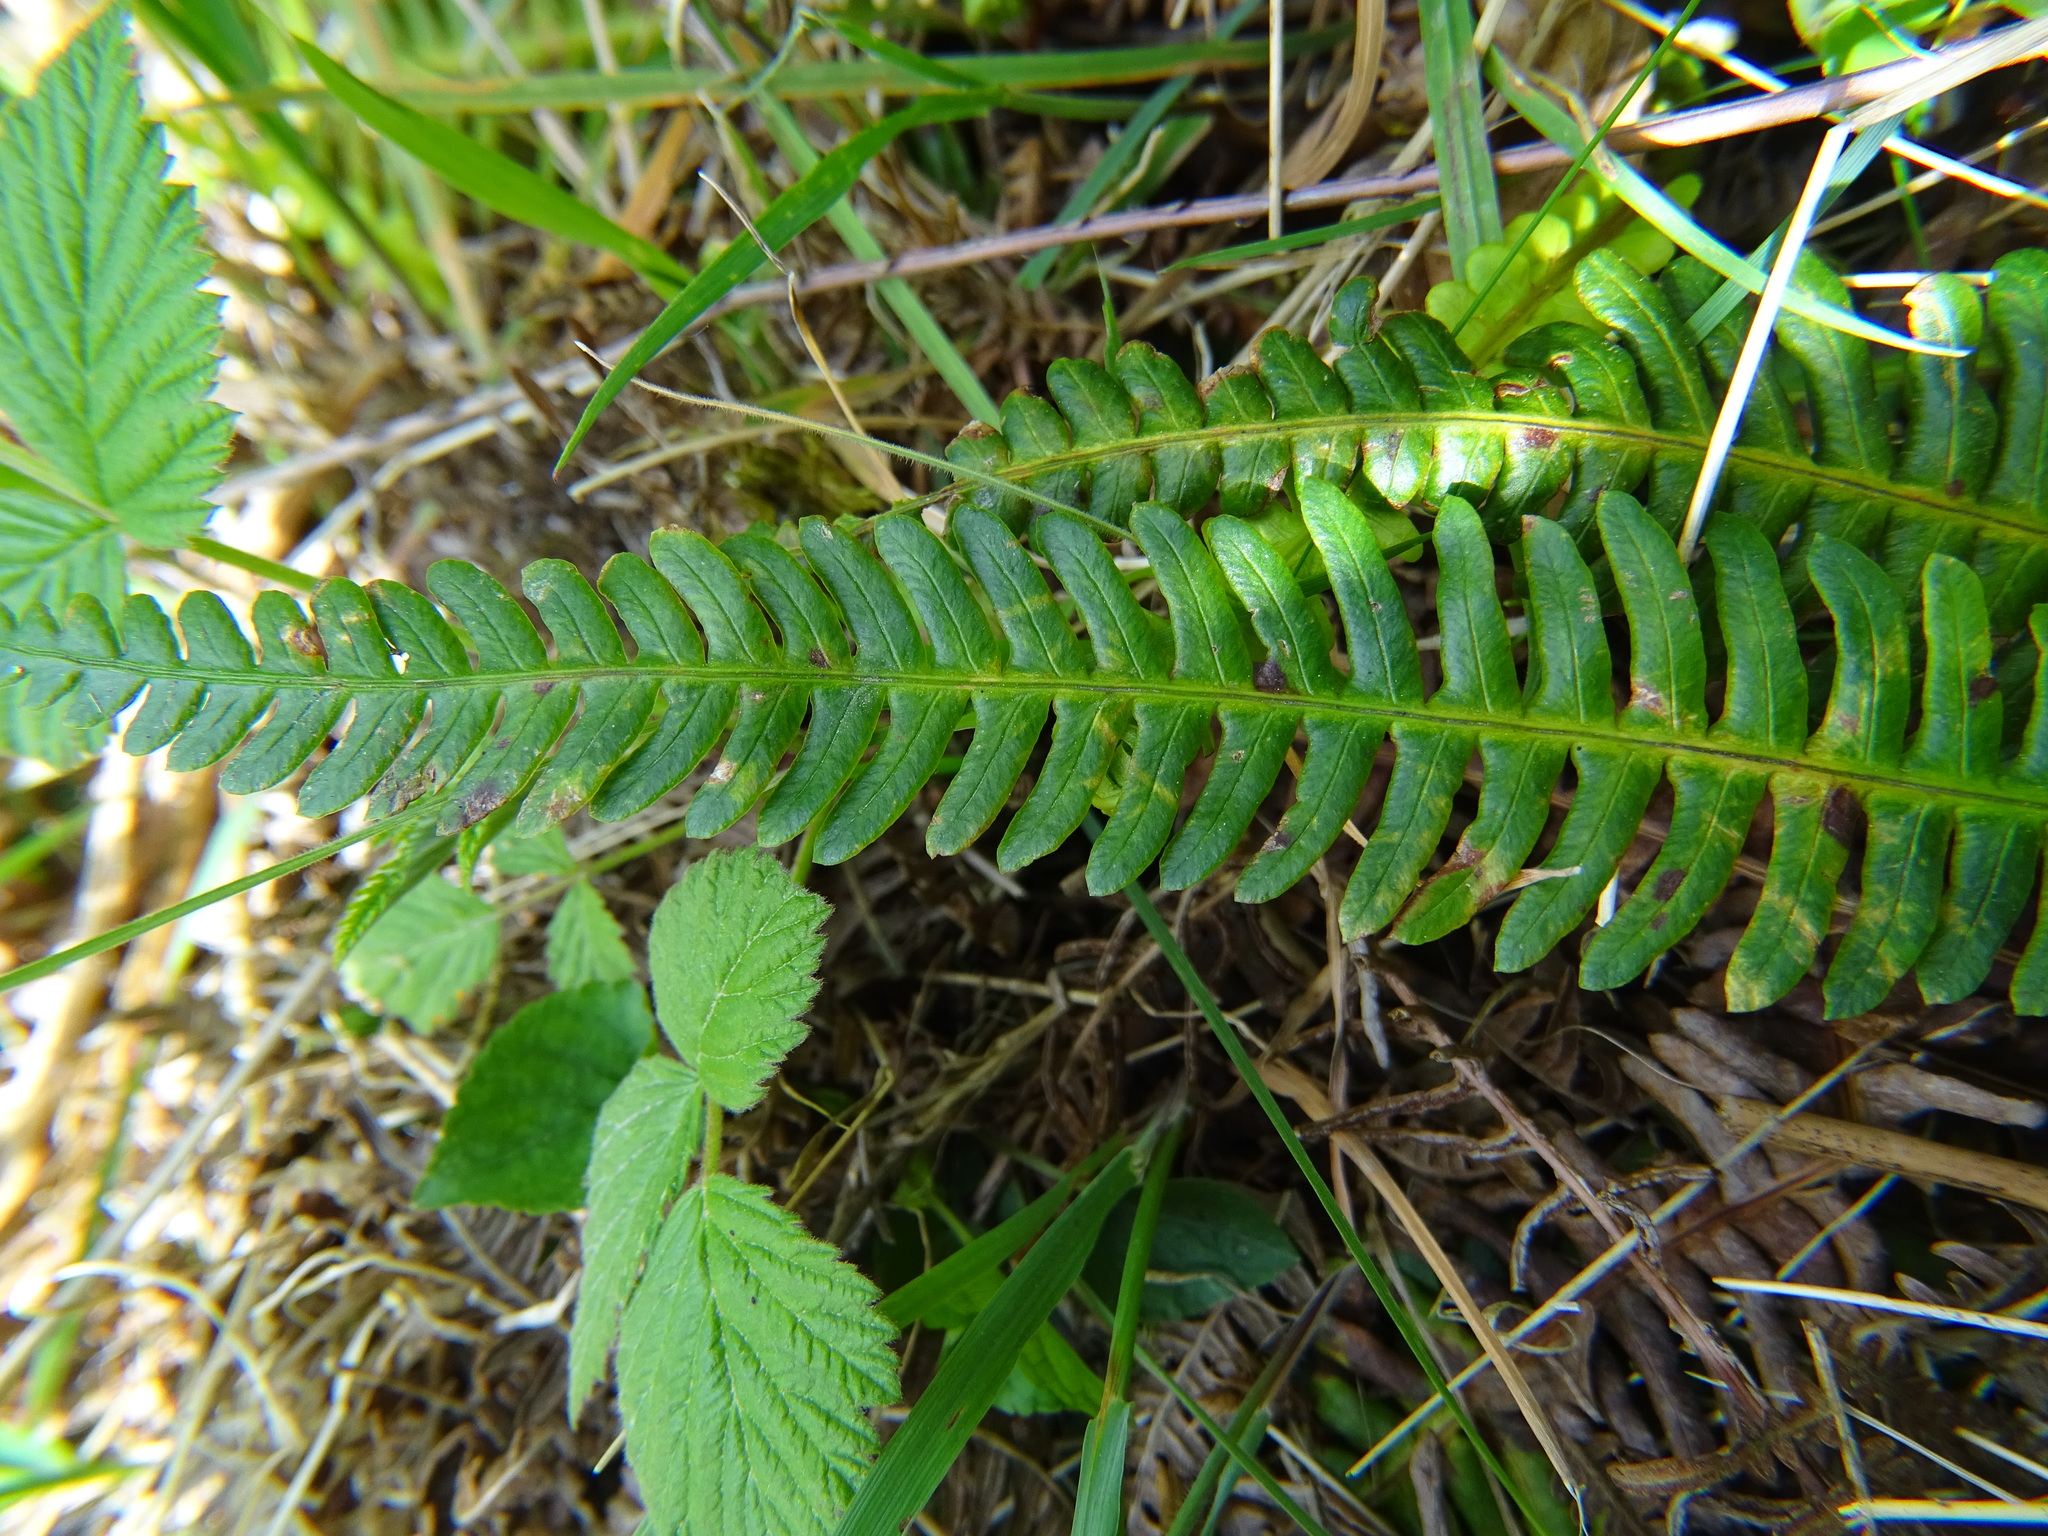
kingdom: Plantae
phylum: Tracheophyta
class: Polypodiopsida
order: Polypodiales
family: Blechnaceae
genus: Struthiopteris
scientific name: Struthiopteris spicant
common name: Deer fern
